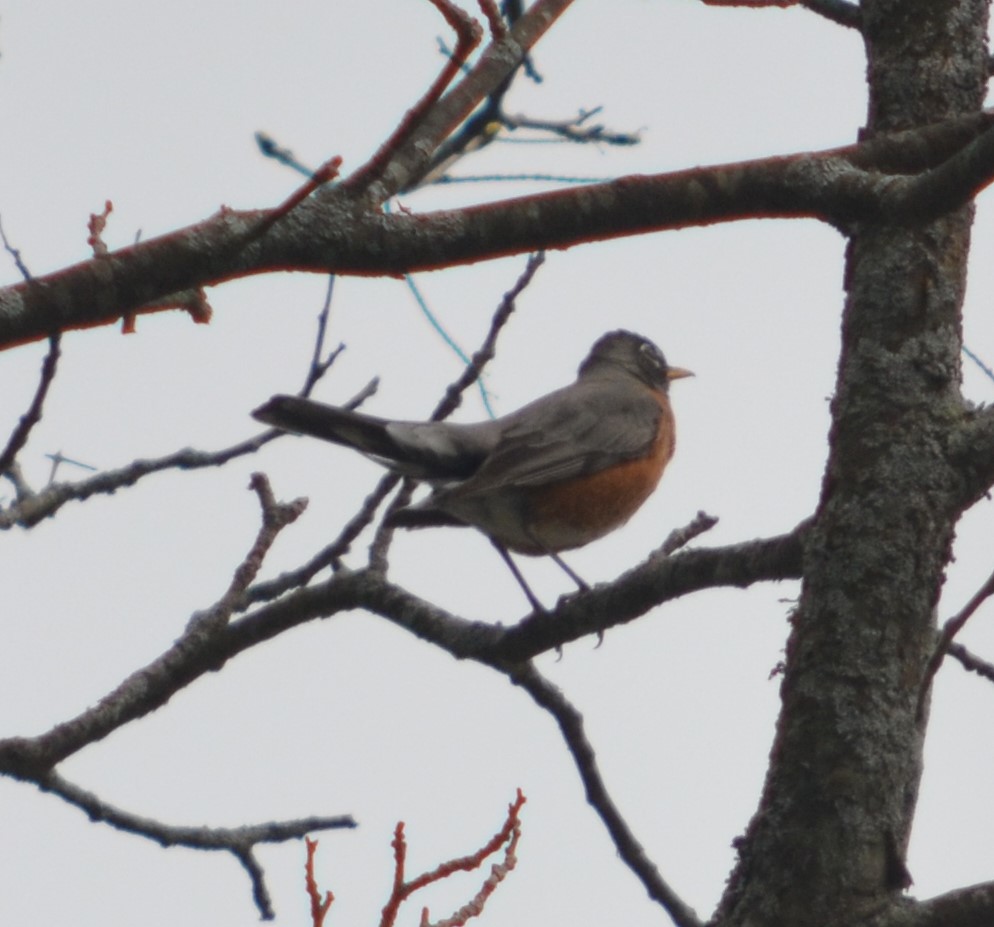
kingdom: Animalia
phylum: Chordata
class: Aves
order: Passeriformes
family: Turdidae
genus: Turdus
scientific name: Turdus migratorius
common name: American robin
